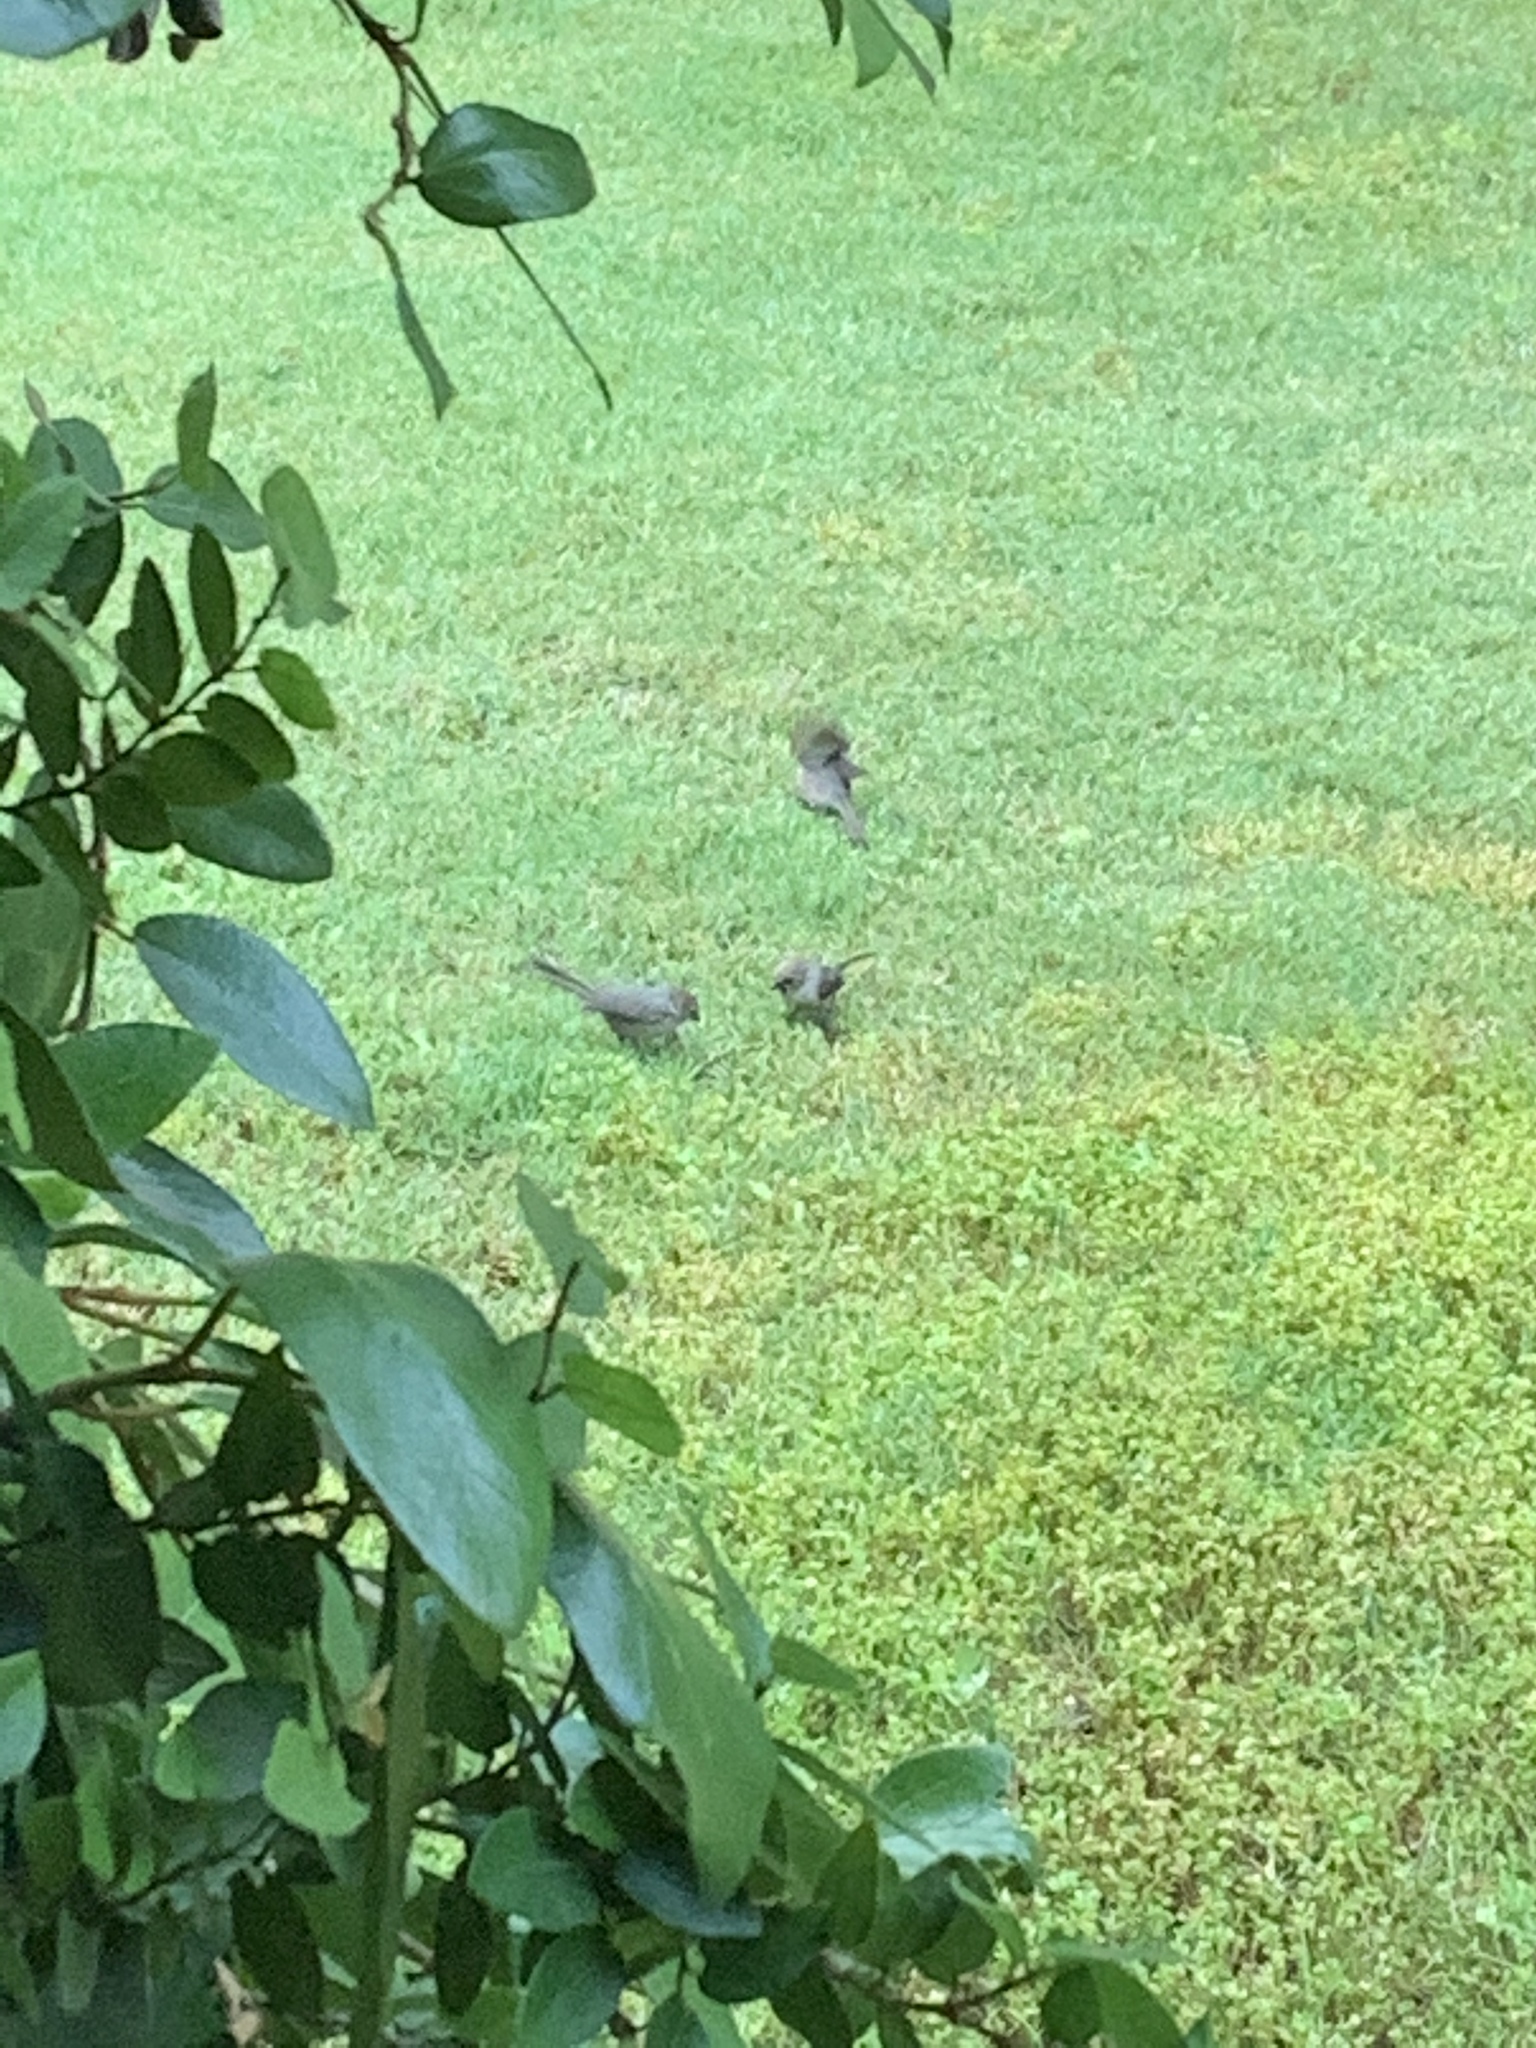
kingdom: Animalia
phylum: Chordata
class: Aves
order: Passeriformes
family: Aegithalidae
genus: Psaltriparus
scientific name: Psaltriparus minimus
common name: American bushtit
